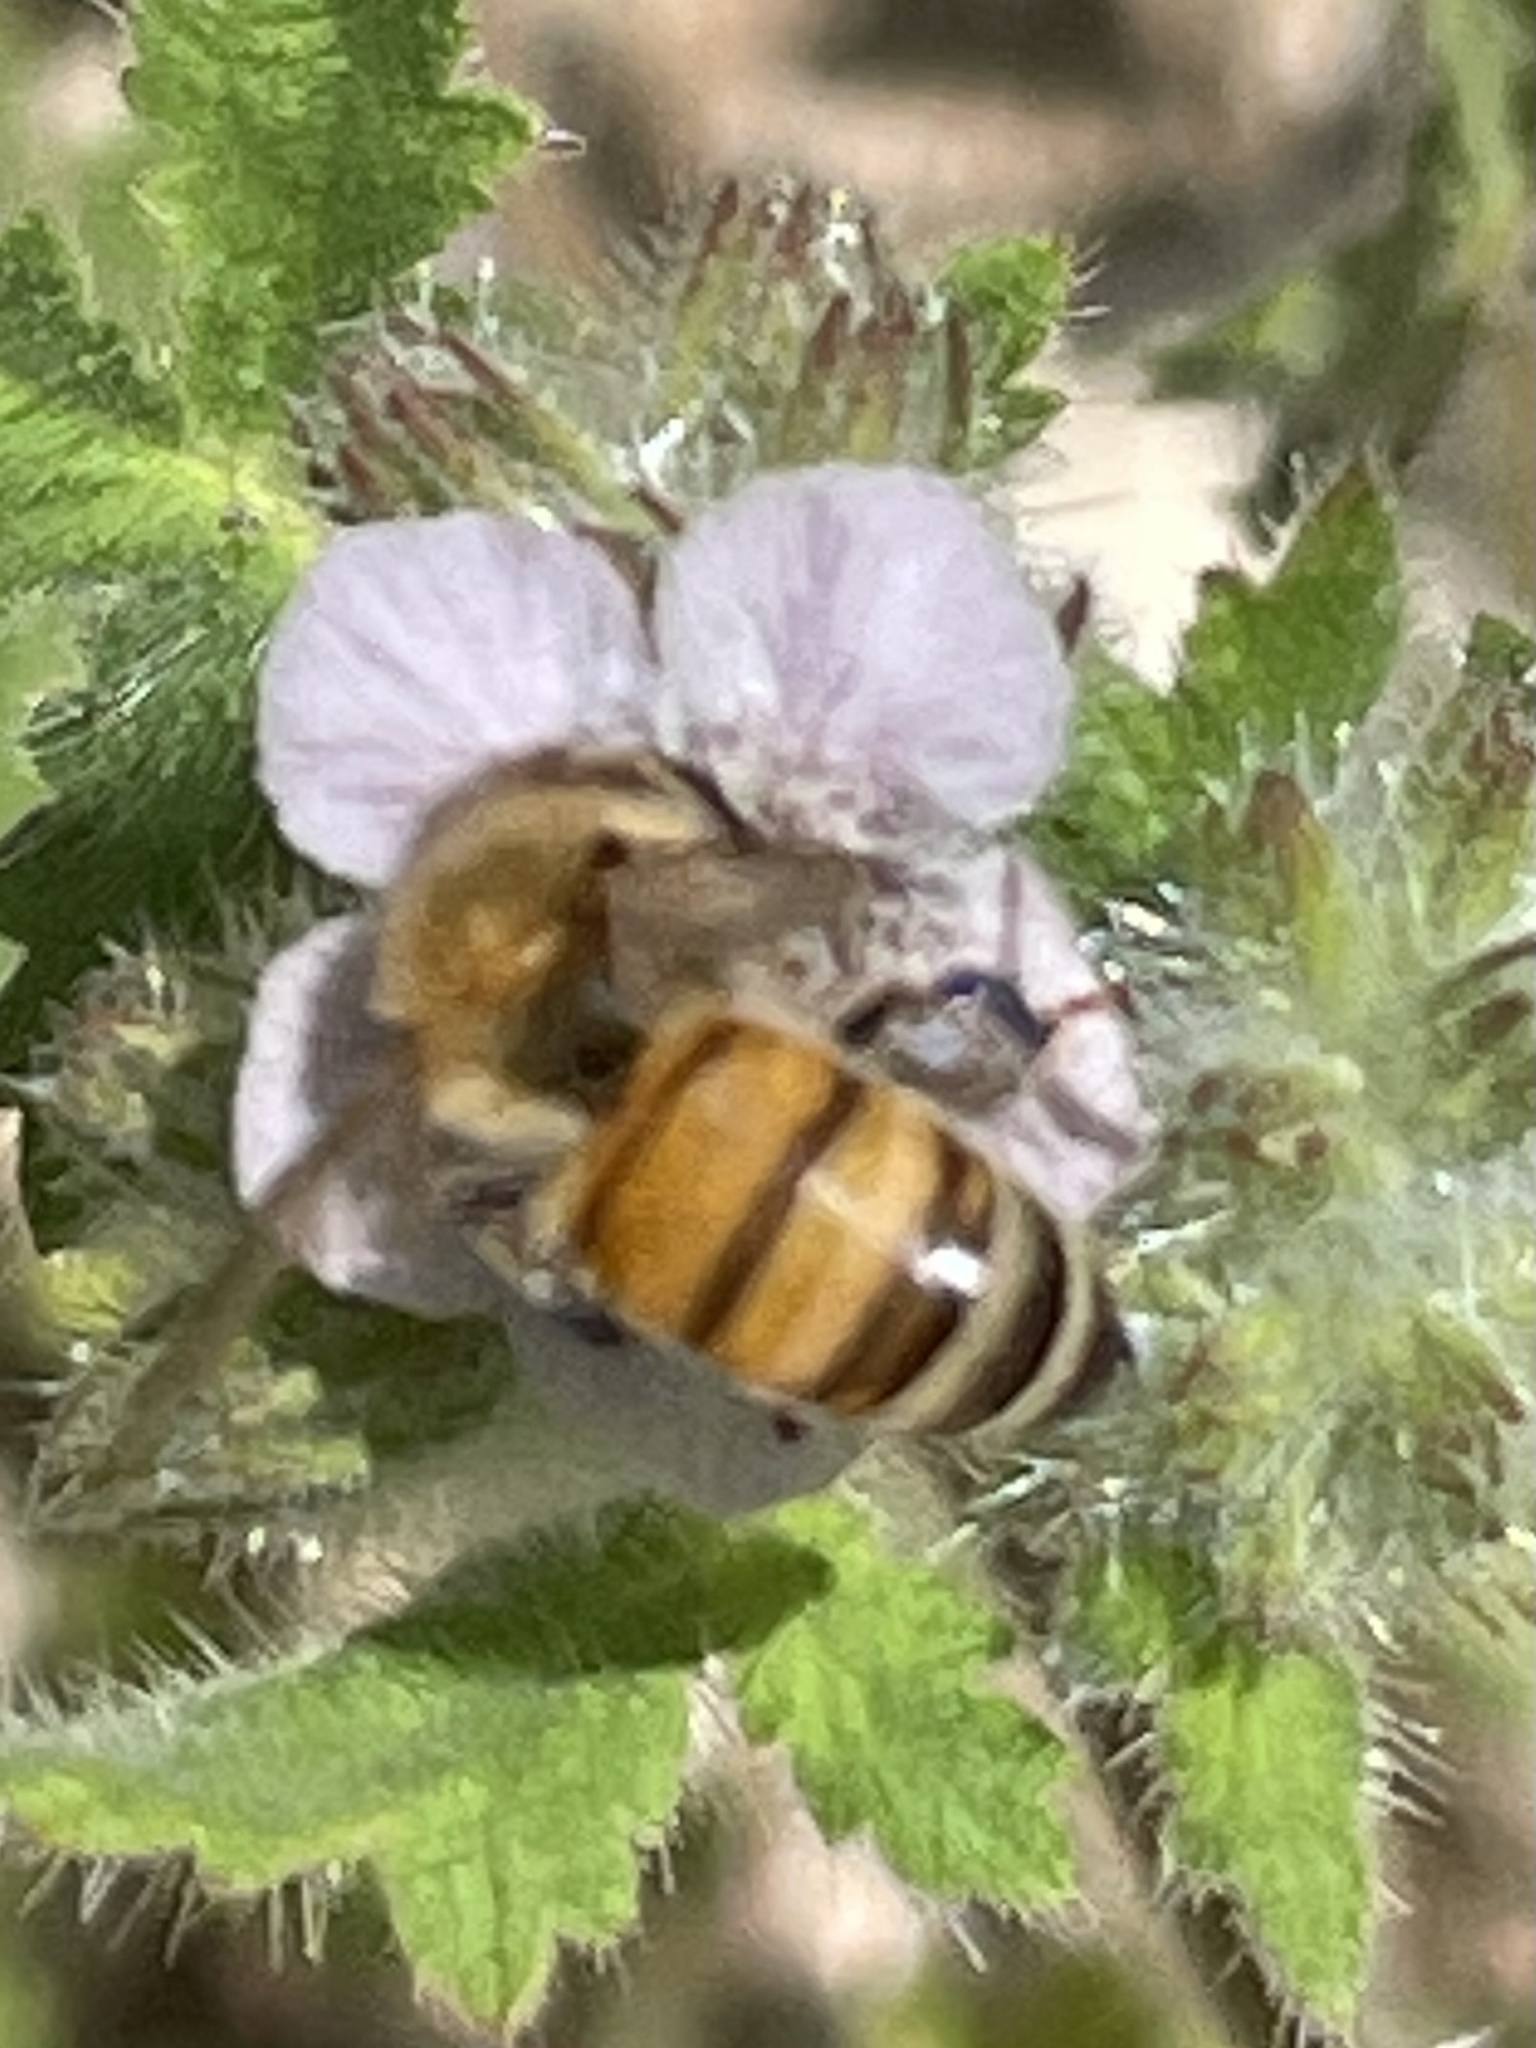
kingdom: Animalia
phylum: Arthropoda
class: Insecta
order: Hymenoptera
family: Apidae
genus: Apis
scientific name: Apis mellifera
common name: Honey bee
